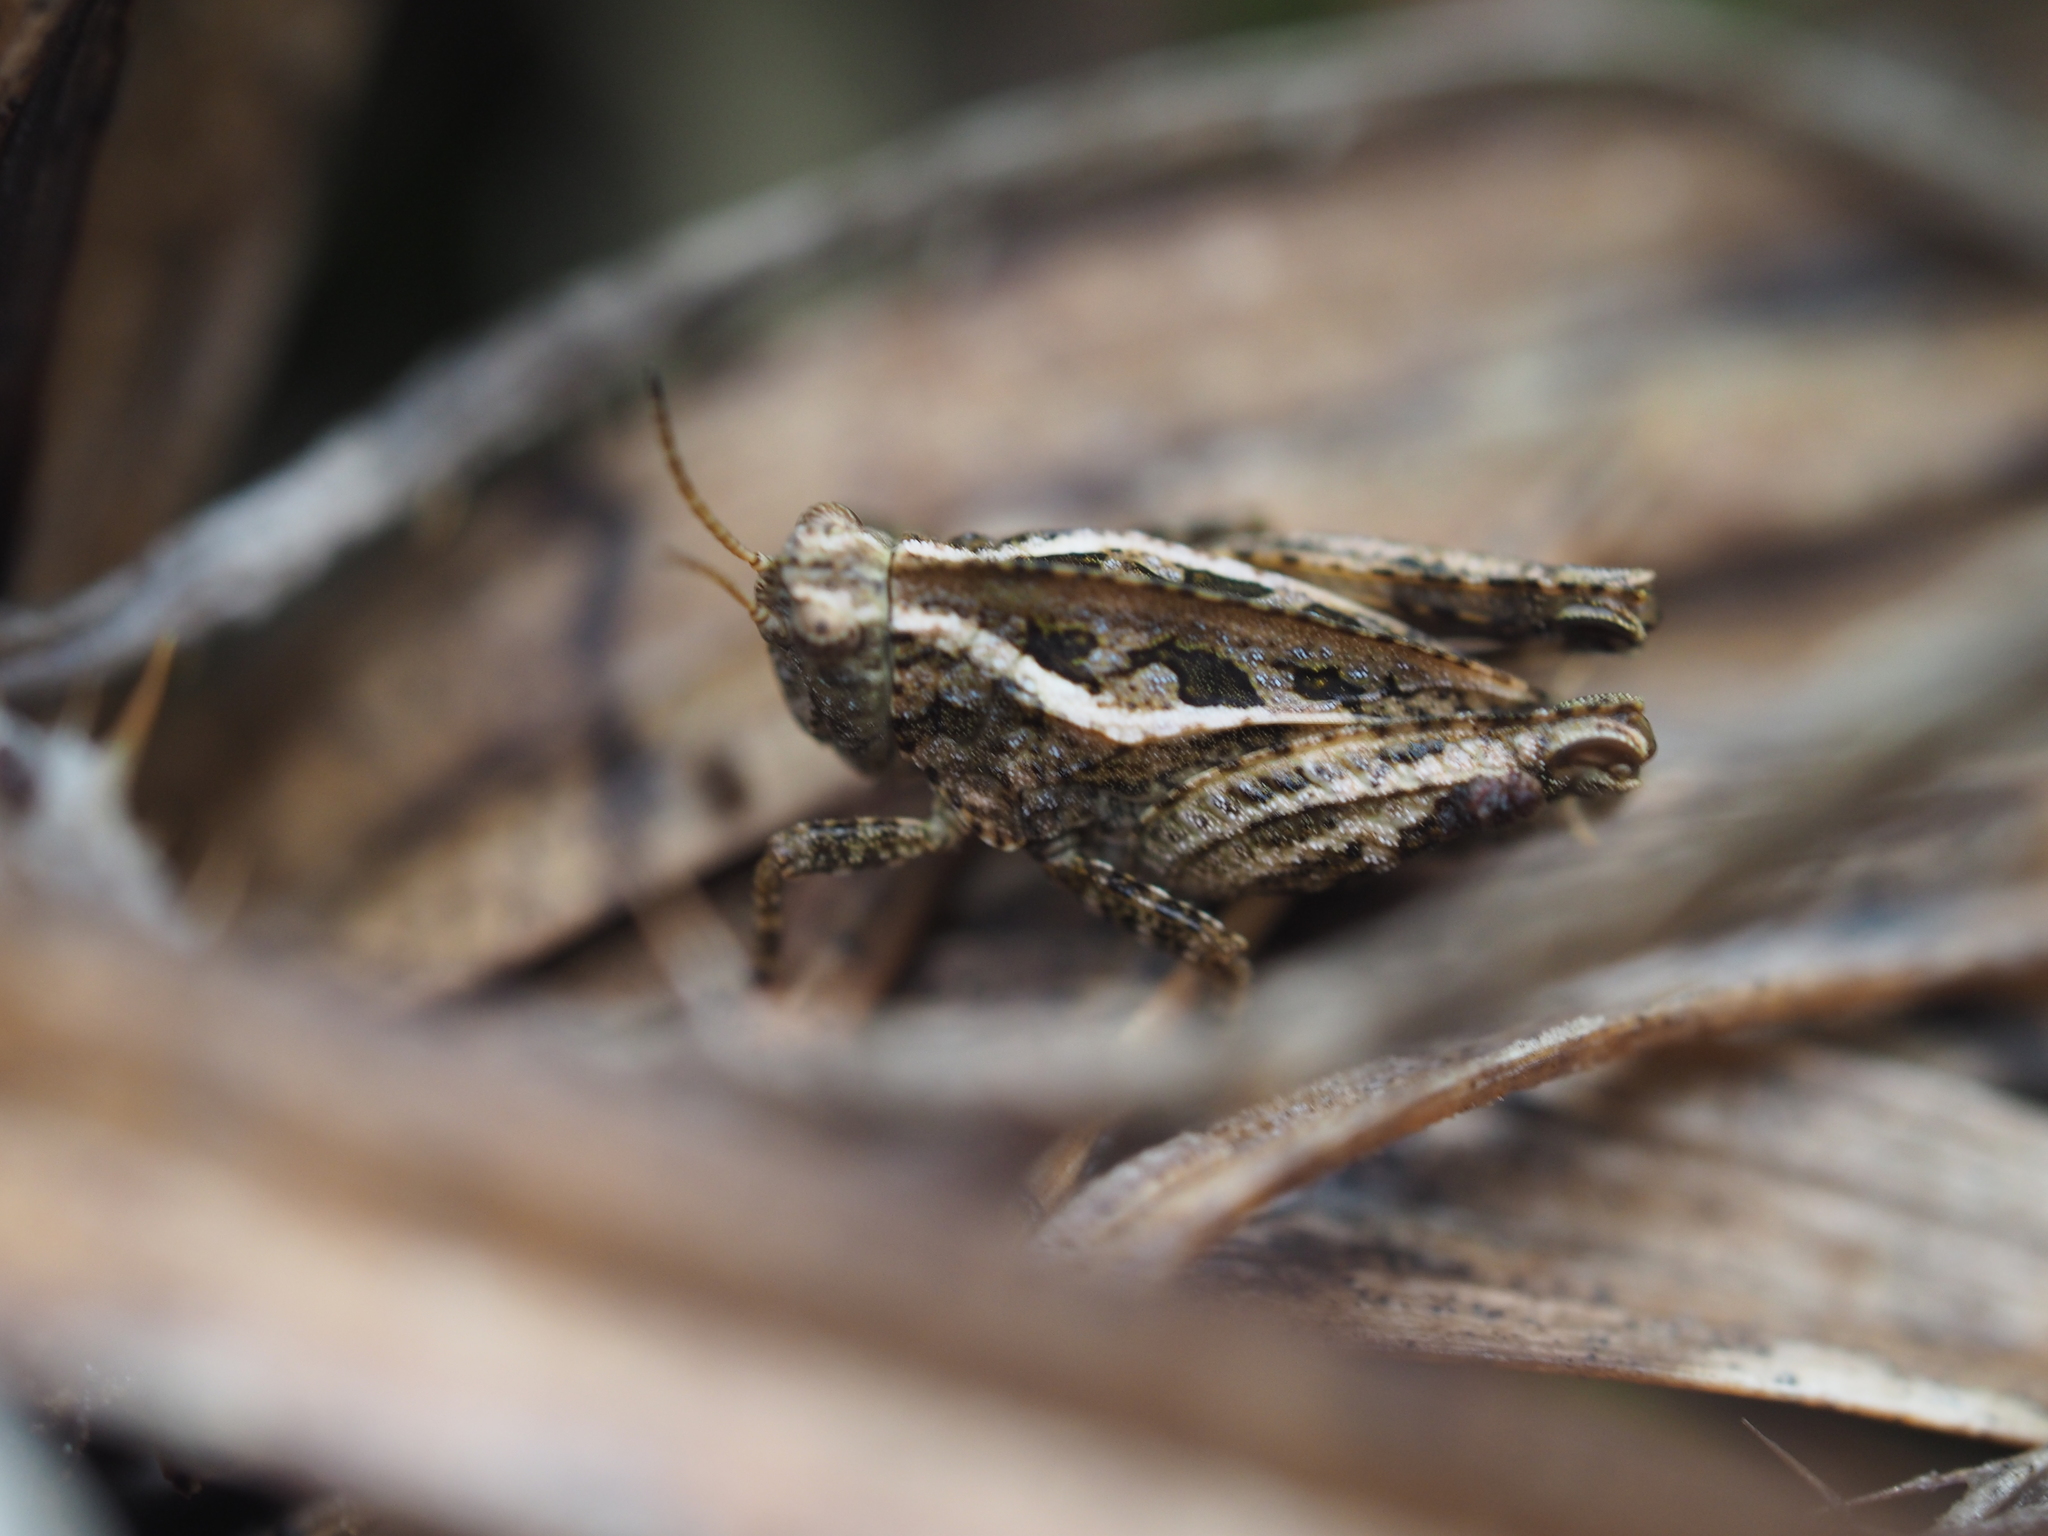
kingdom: Animalia
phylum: Arthropoda
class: Insecta
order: Orthoptera
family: Tetrigidae
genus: Tetrix
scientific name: Tetrix tenuicornis
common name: Long-horned groundhopper
